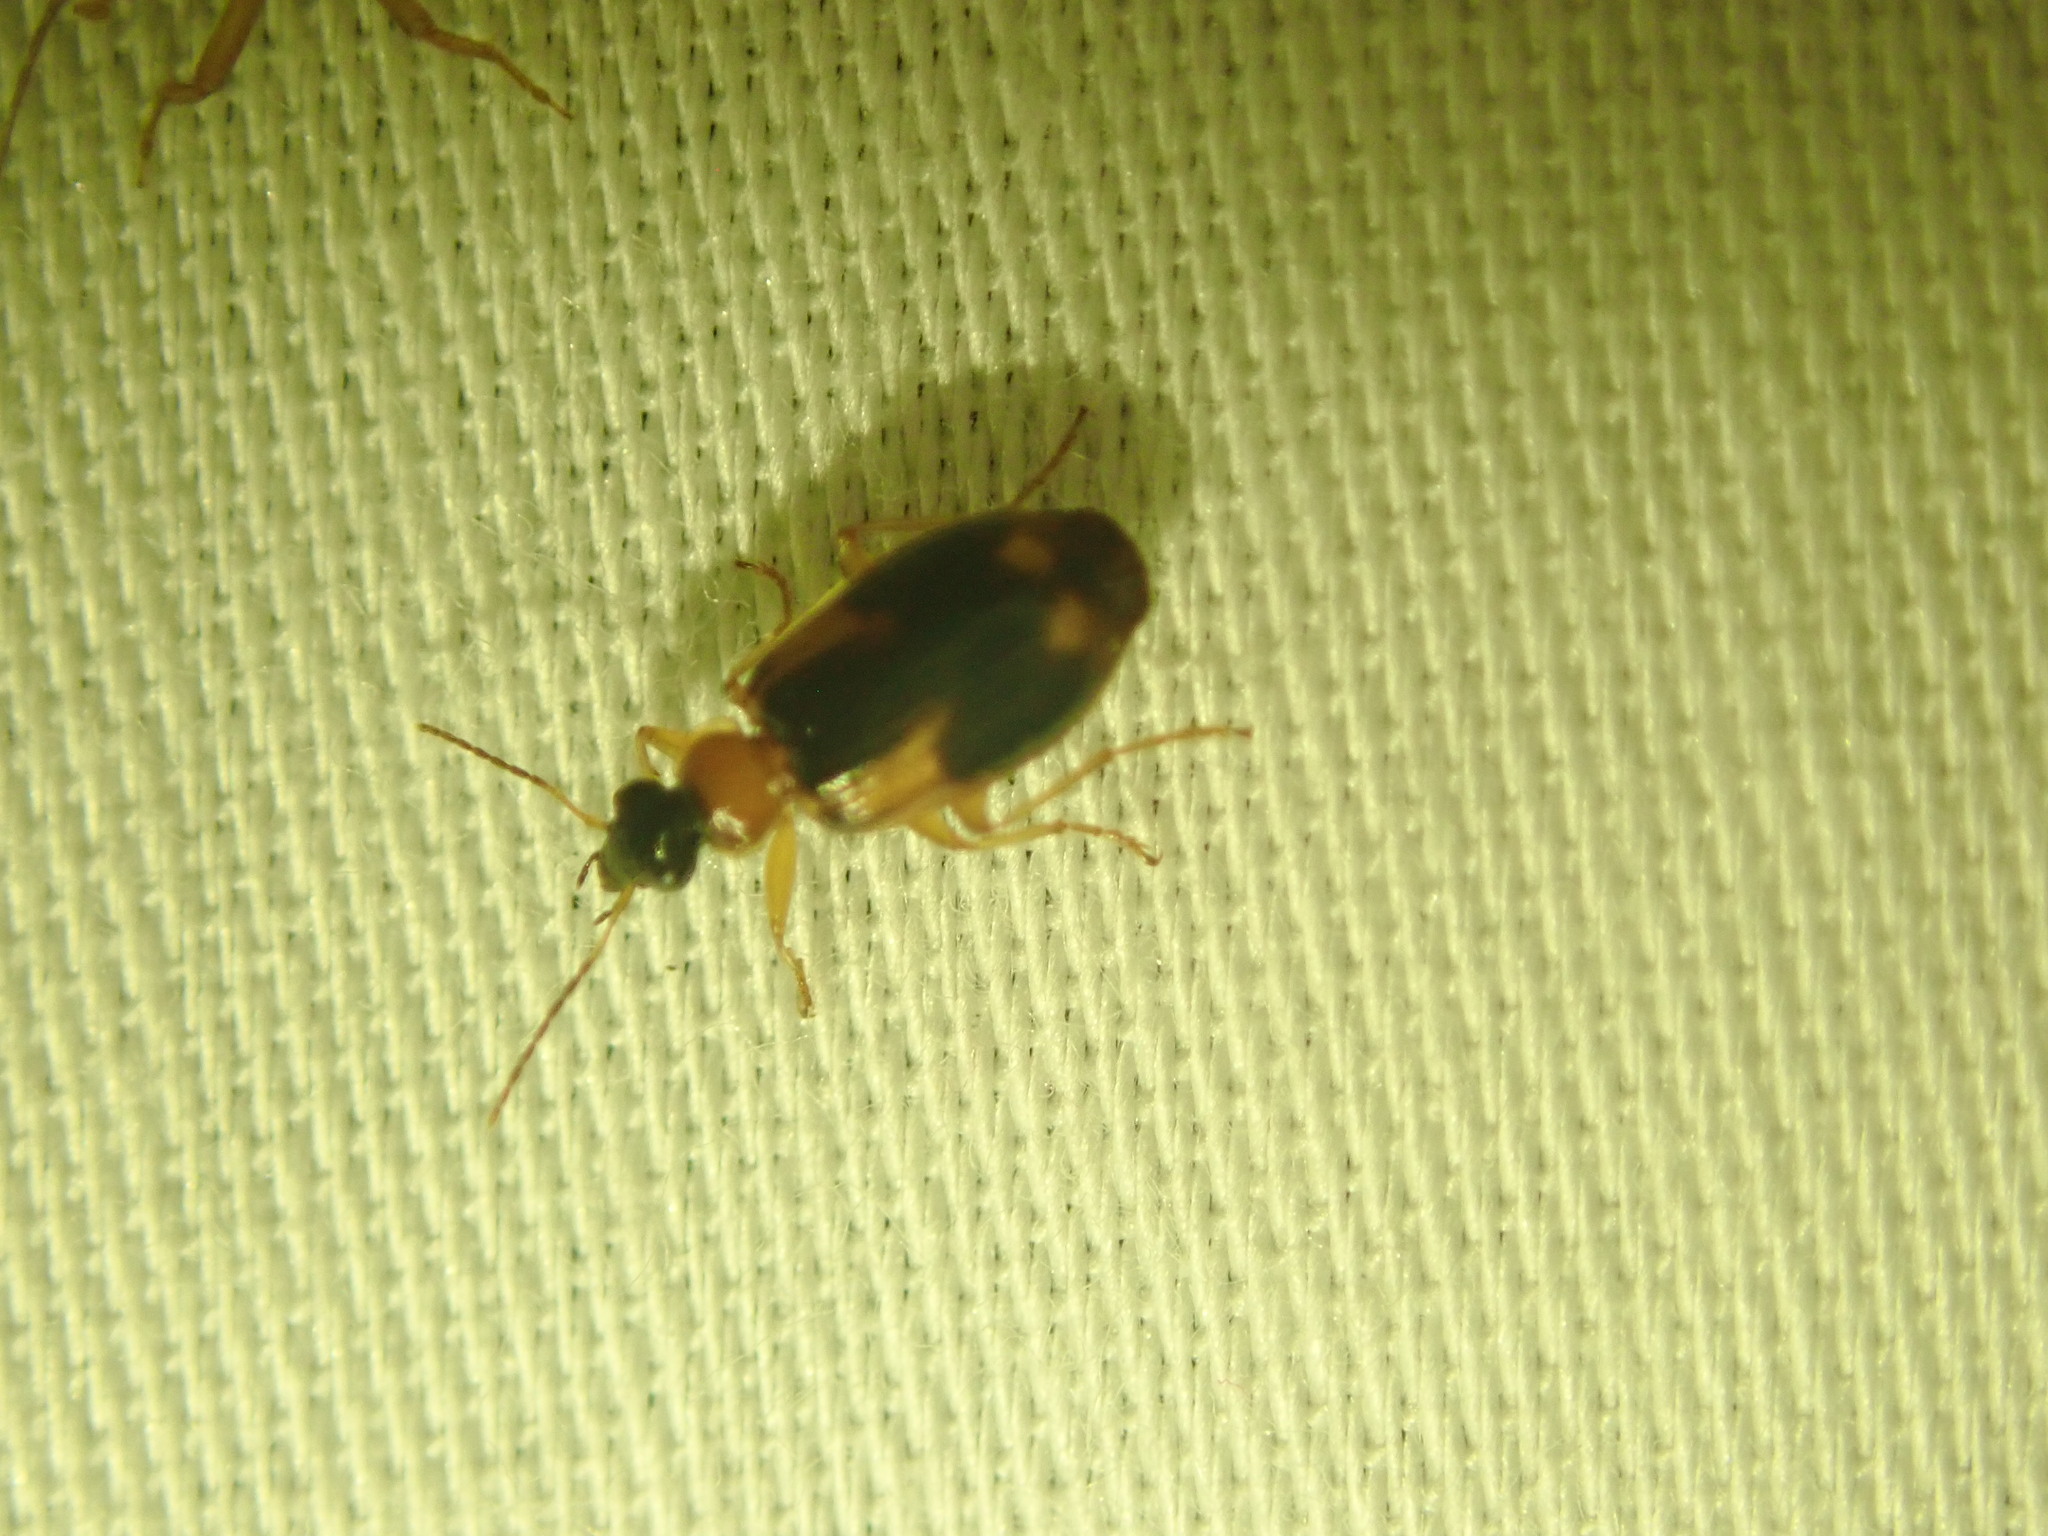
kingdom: Animalia
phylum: Arthropoda
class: Insecta
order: Coleoptera
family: Carabidae
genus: Lebia
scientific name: Lebia analis
